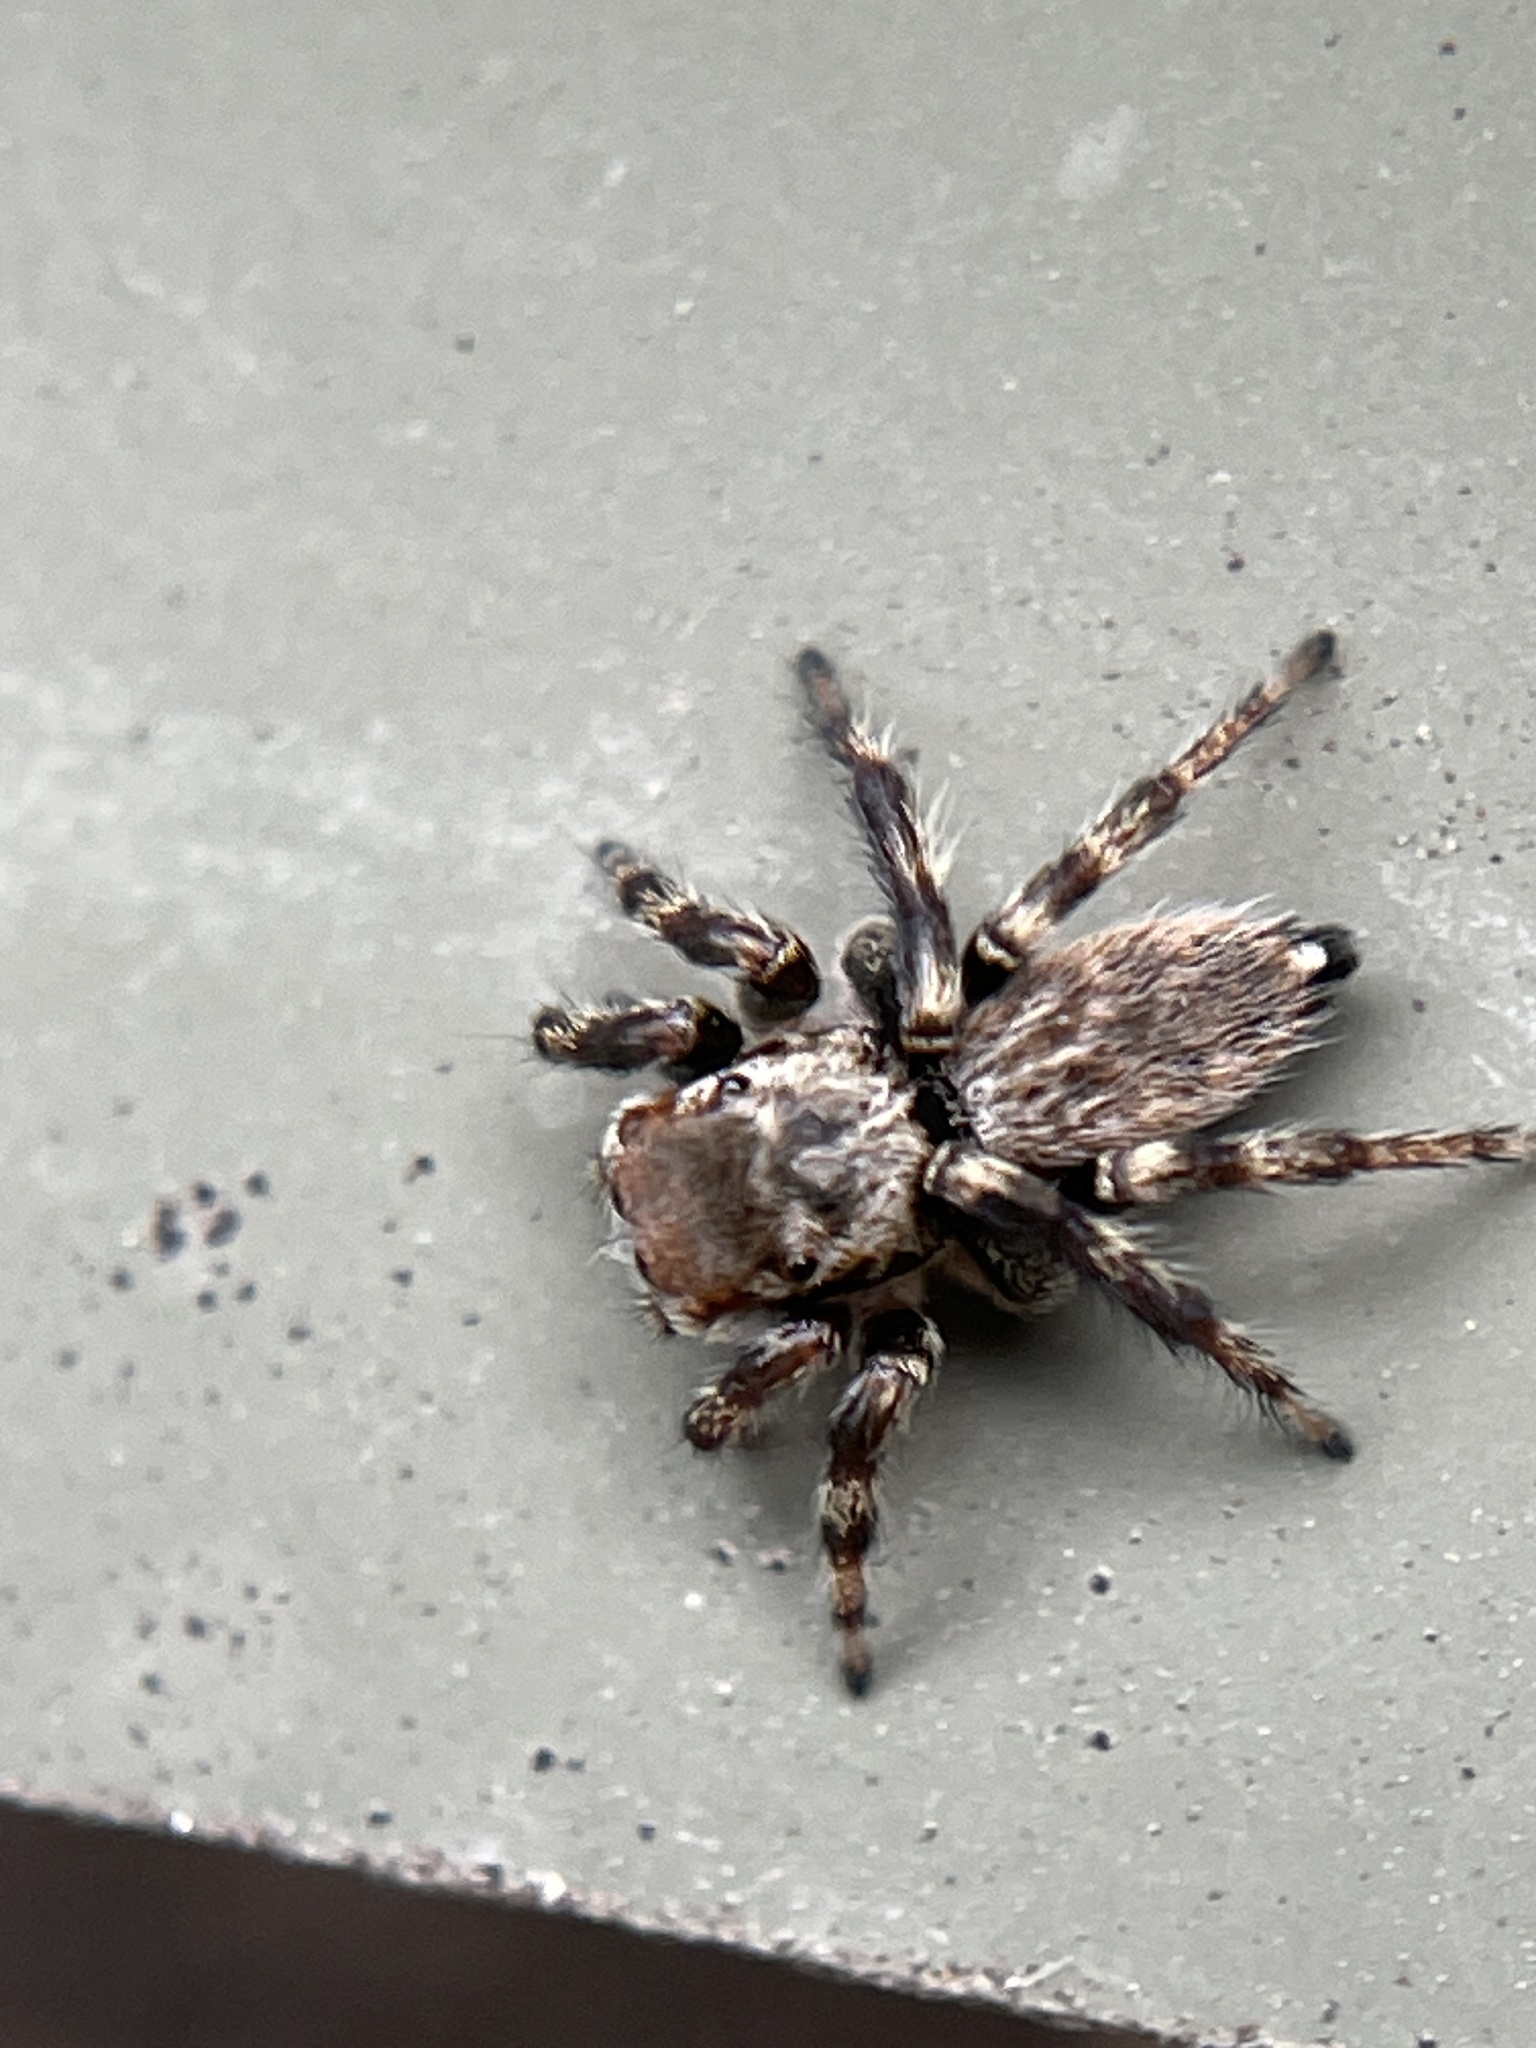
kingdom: Animalia
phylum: Arthropoda
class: Arachnida
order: Araneae
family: Salticidae
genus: Maratus
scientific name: Maratus griseus
